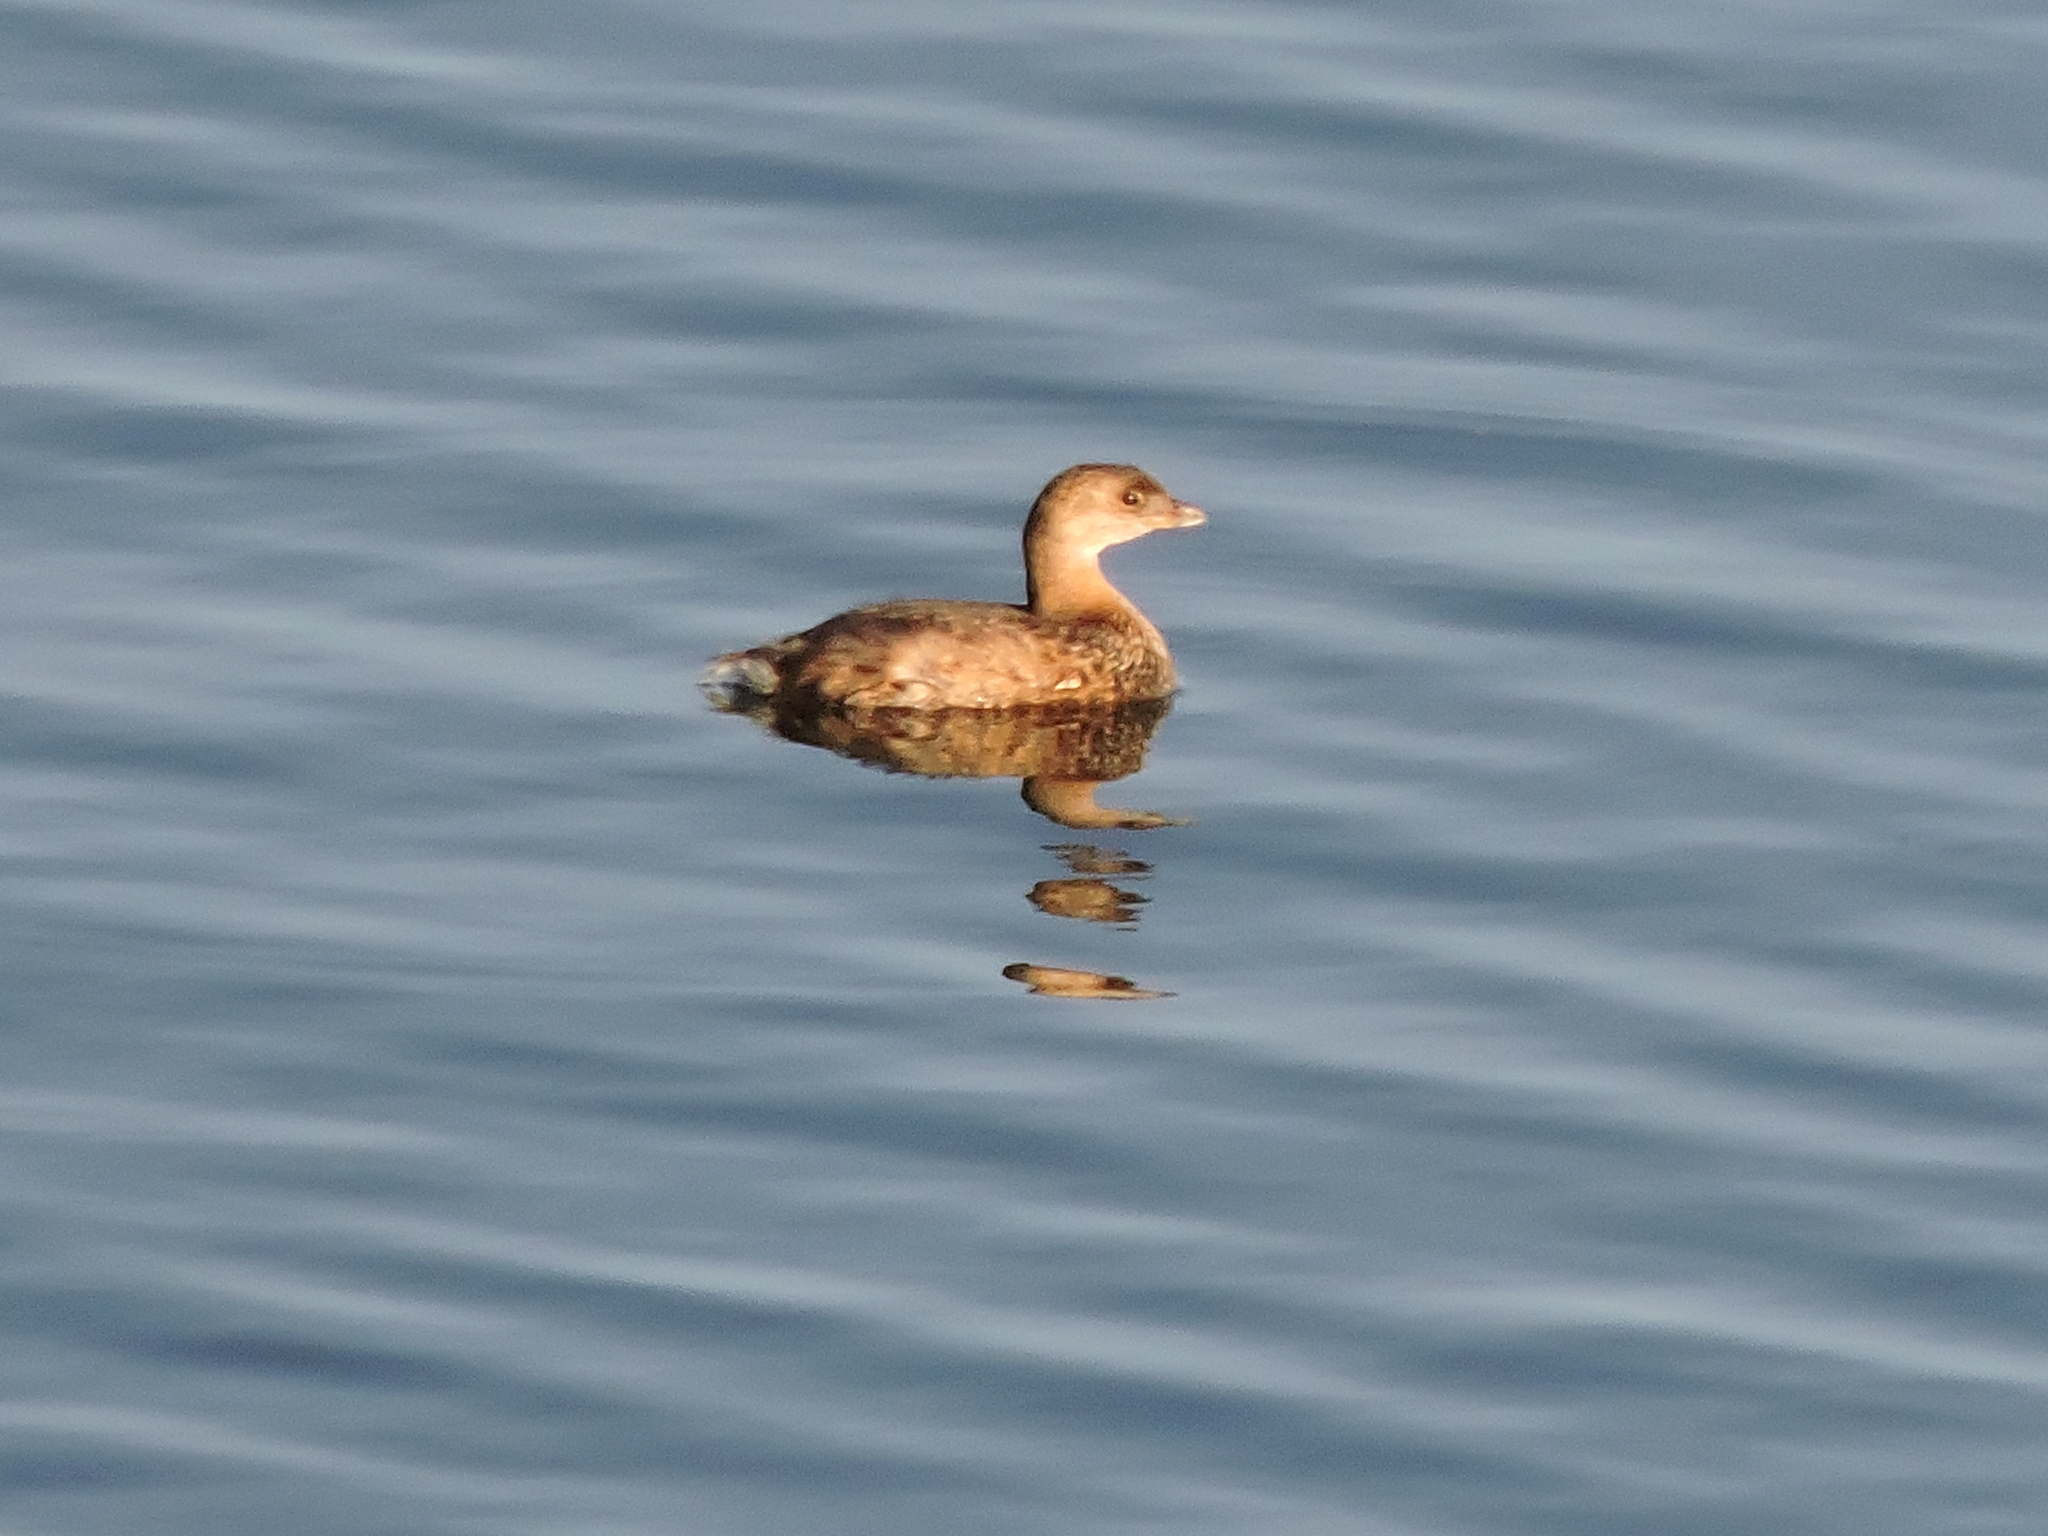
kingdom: Animalia
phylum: Chordata
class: Aves
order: Podicipediformes
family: Podicipedidae
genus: Podilymbus
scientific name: Podilymbus podiceps
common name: Pied-billed grebe
